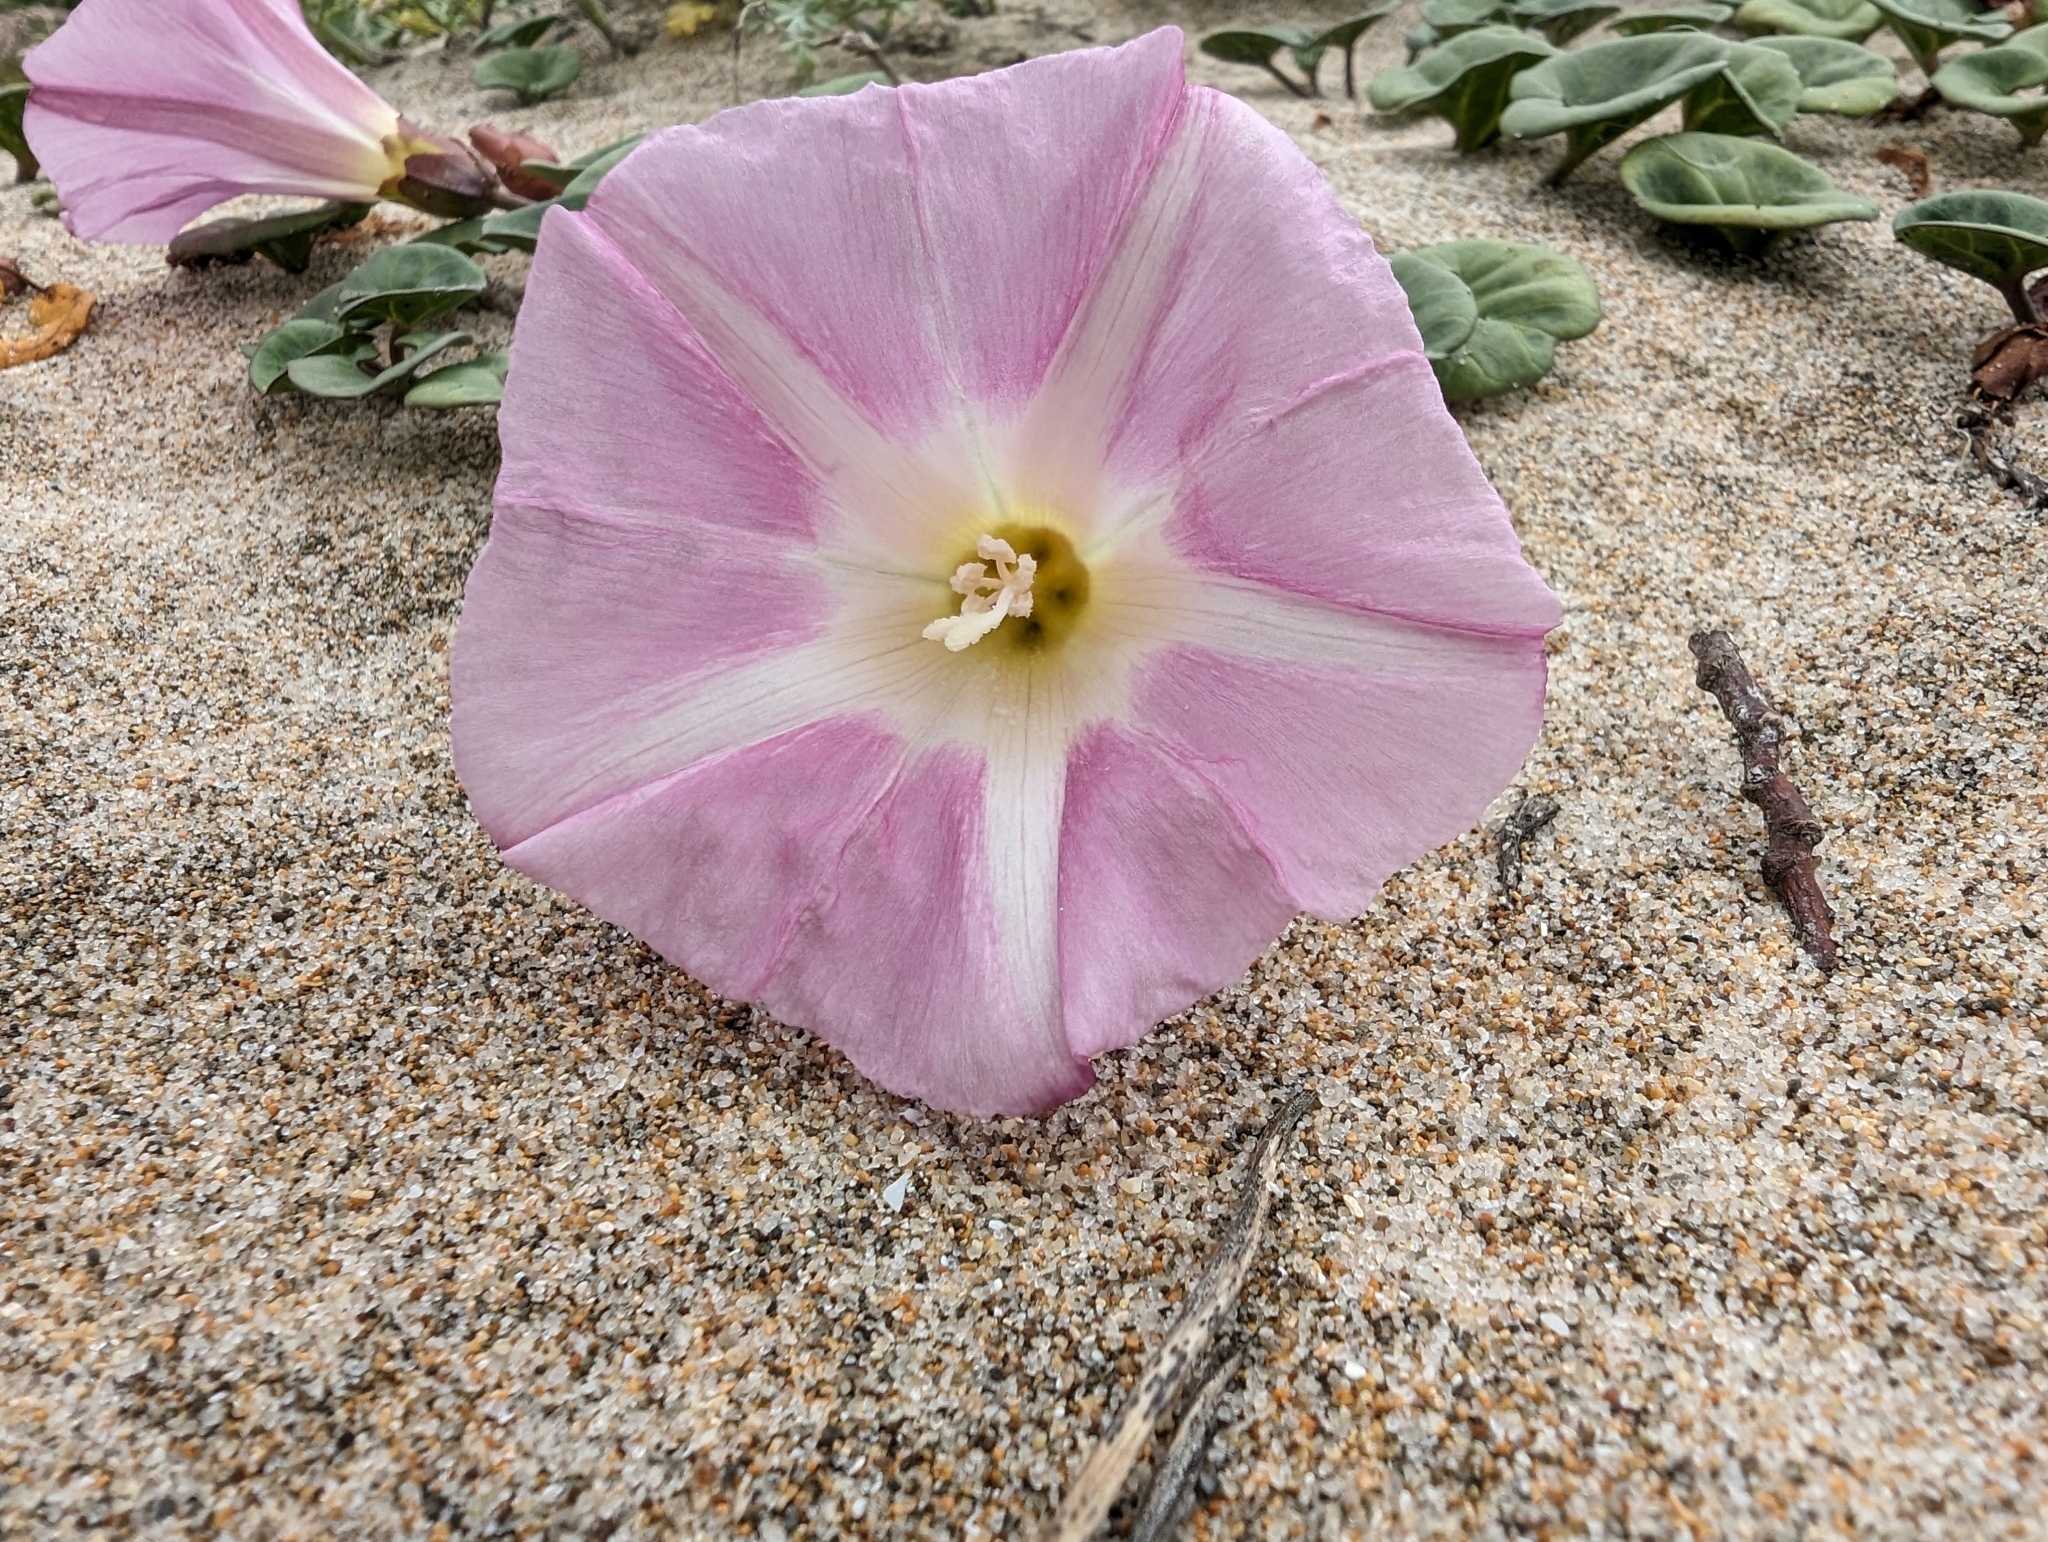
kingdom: Plantae
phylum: Tracheophyta
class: Magnoliopsida
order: Solanales
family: Convolvulaceae
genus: Calystegia
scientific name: Calystegia soldanella
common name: Sea bindweed
